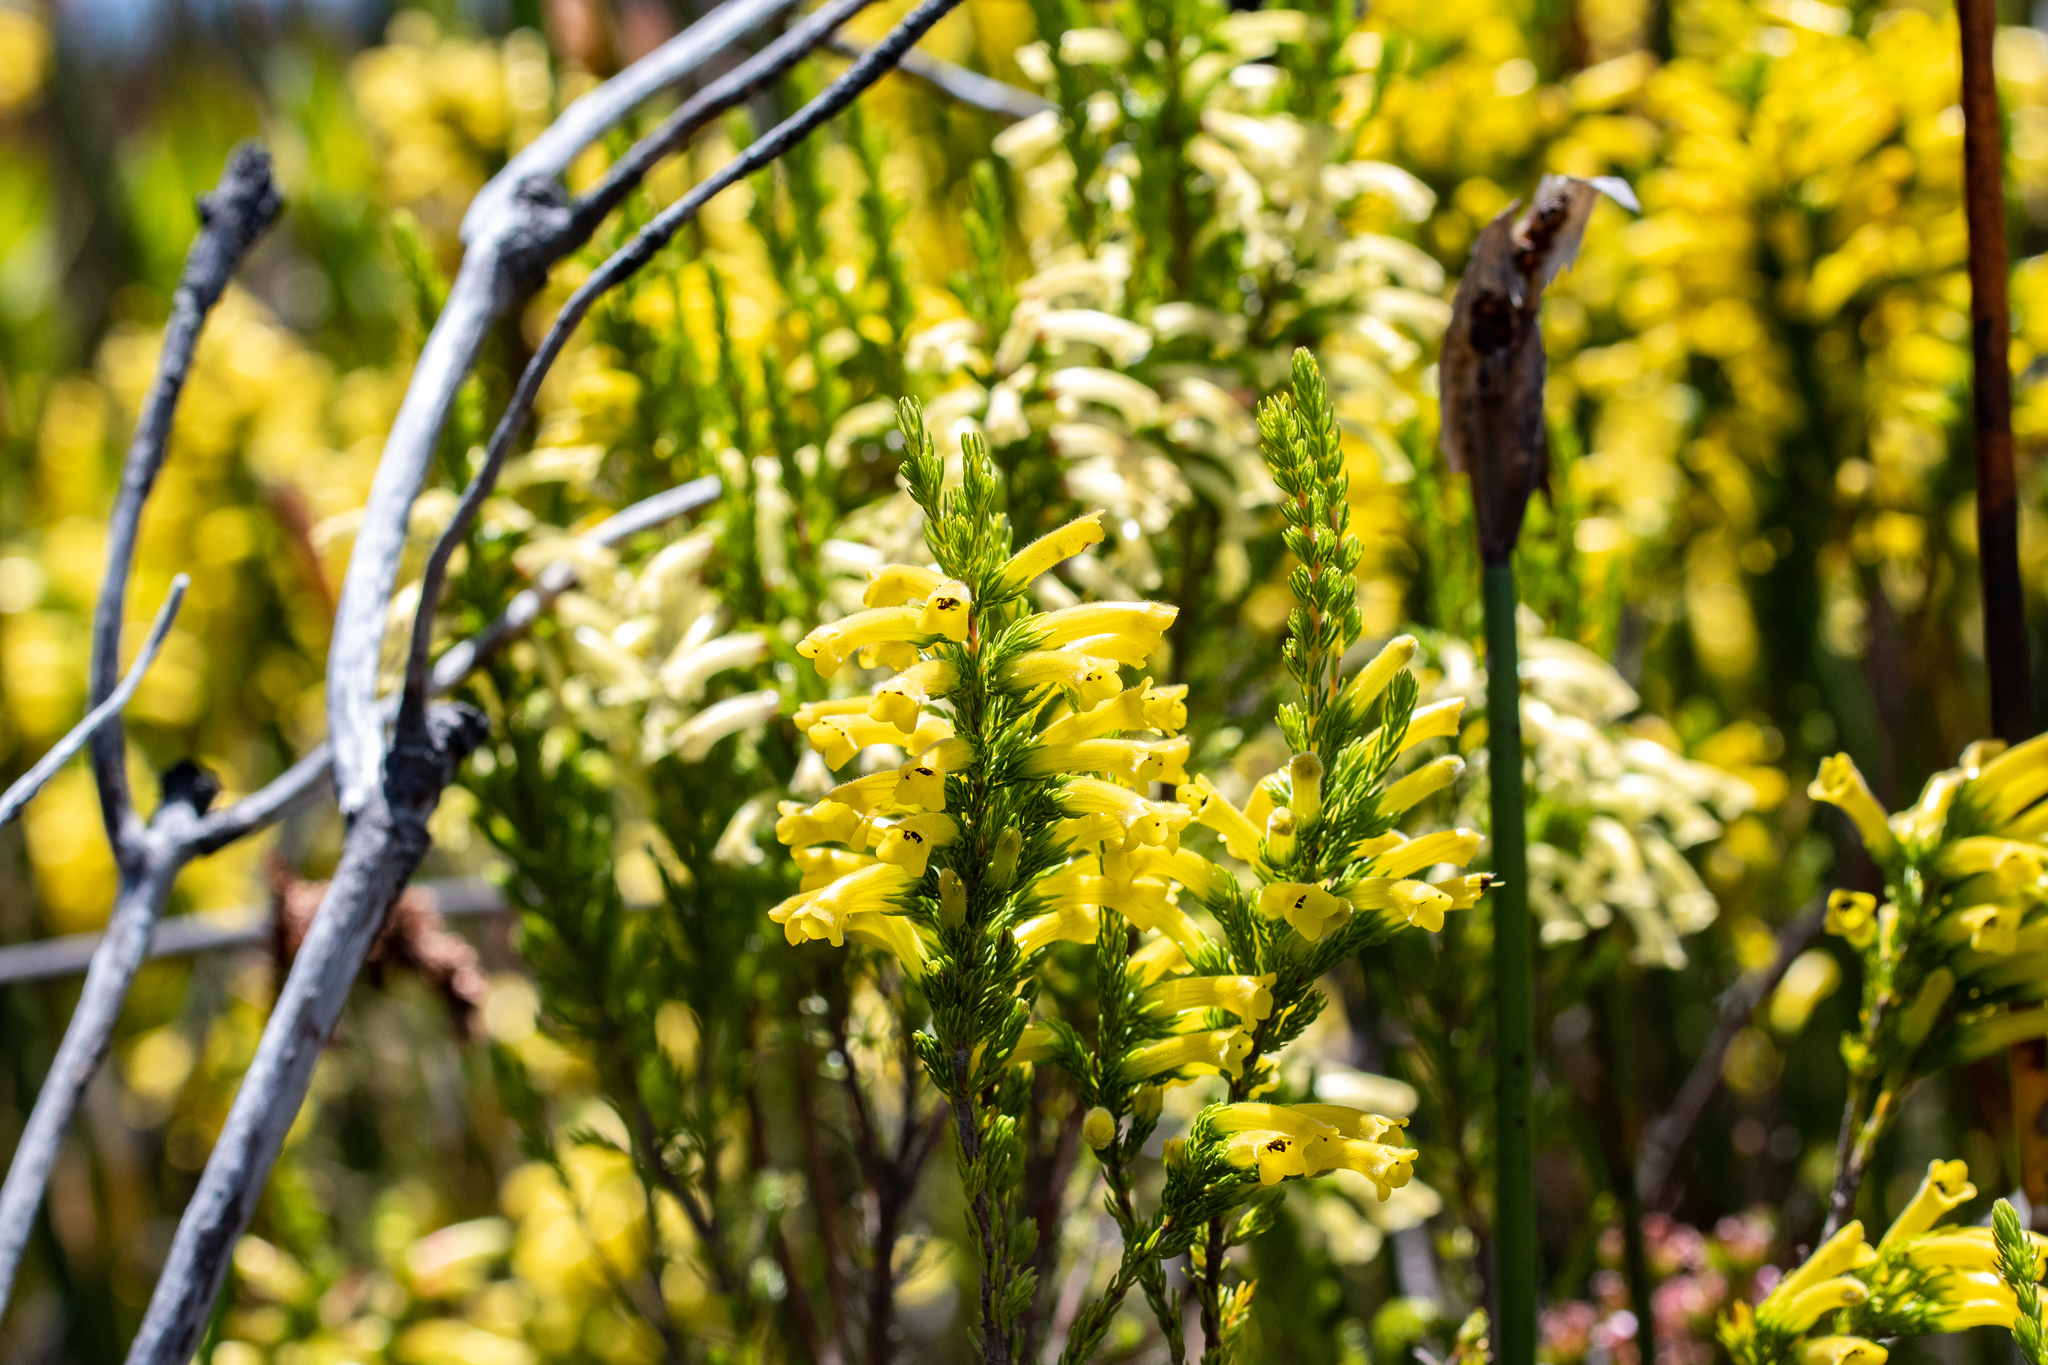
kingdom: Plantae
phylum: Tracheophyta
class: Magnoliopsida
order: Ericales
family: Ericaceae
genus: Erica
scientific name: Erica macowanii
